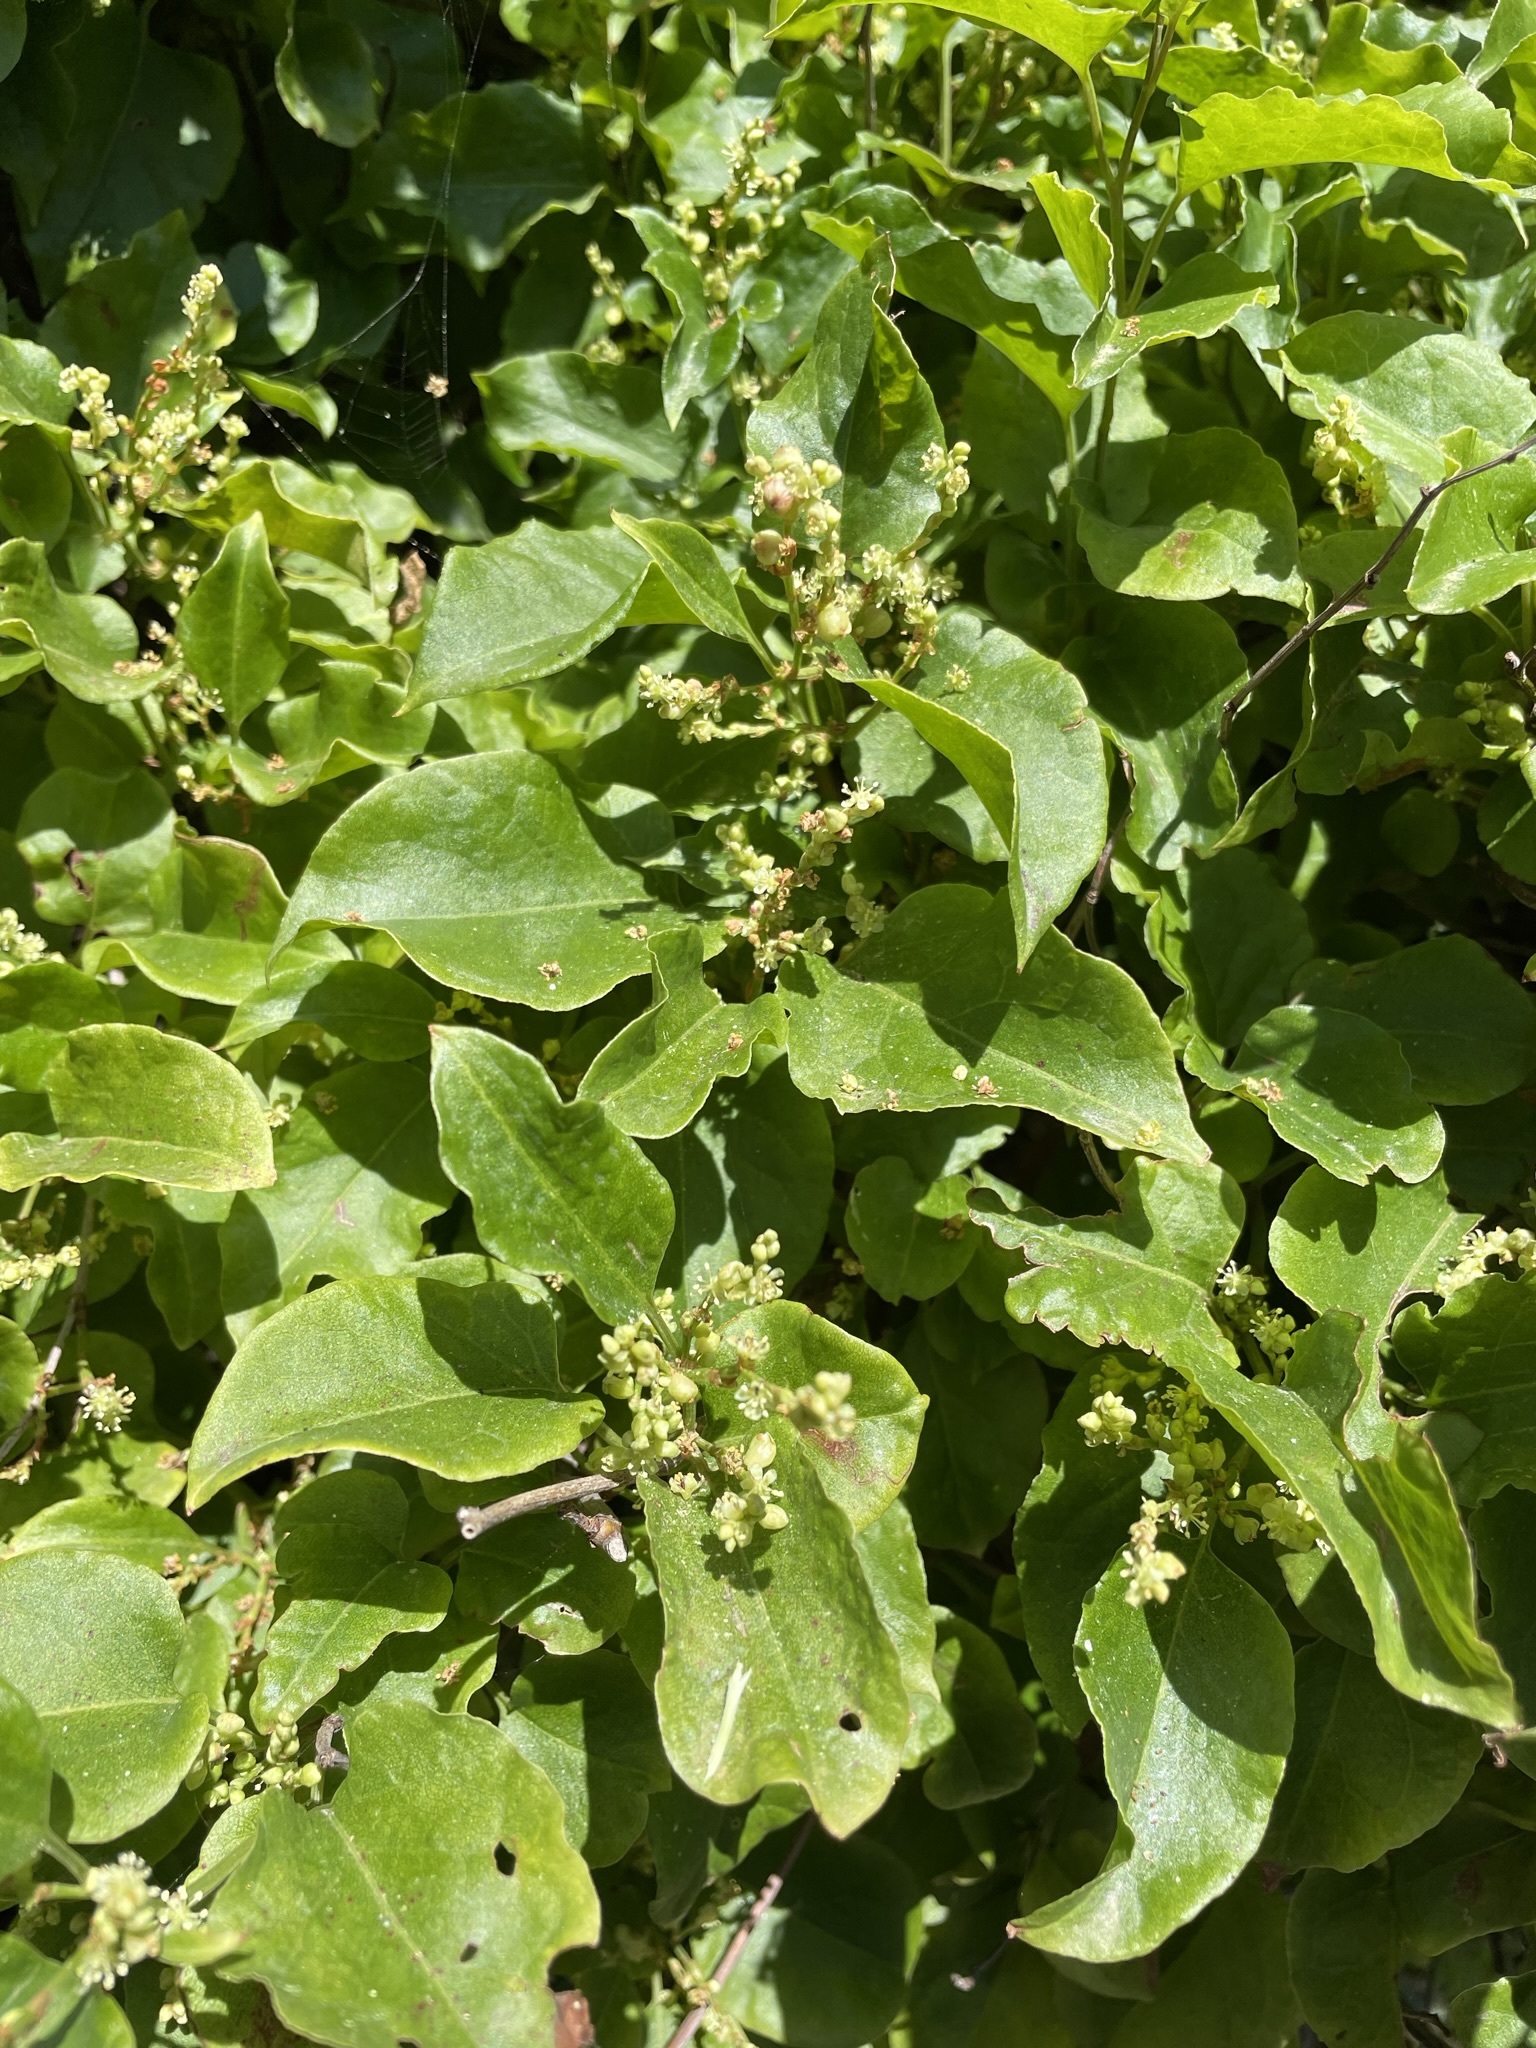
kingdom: Plantae
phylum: Tracheophyta
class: Magnoliopsida
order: Caryophyllales
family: Polygonaceae
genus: Muehlenbeckia
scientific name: Muehlenbeckia australis
